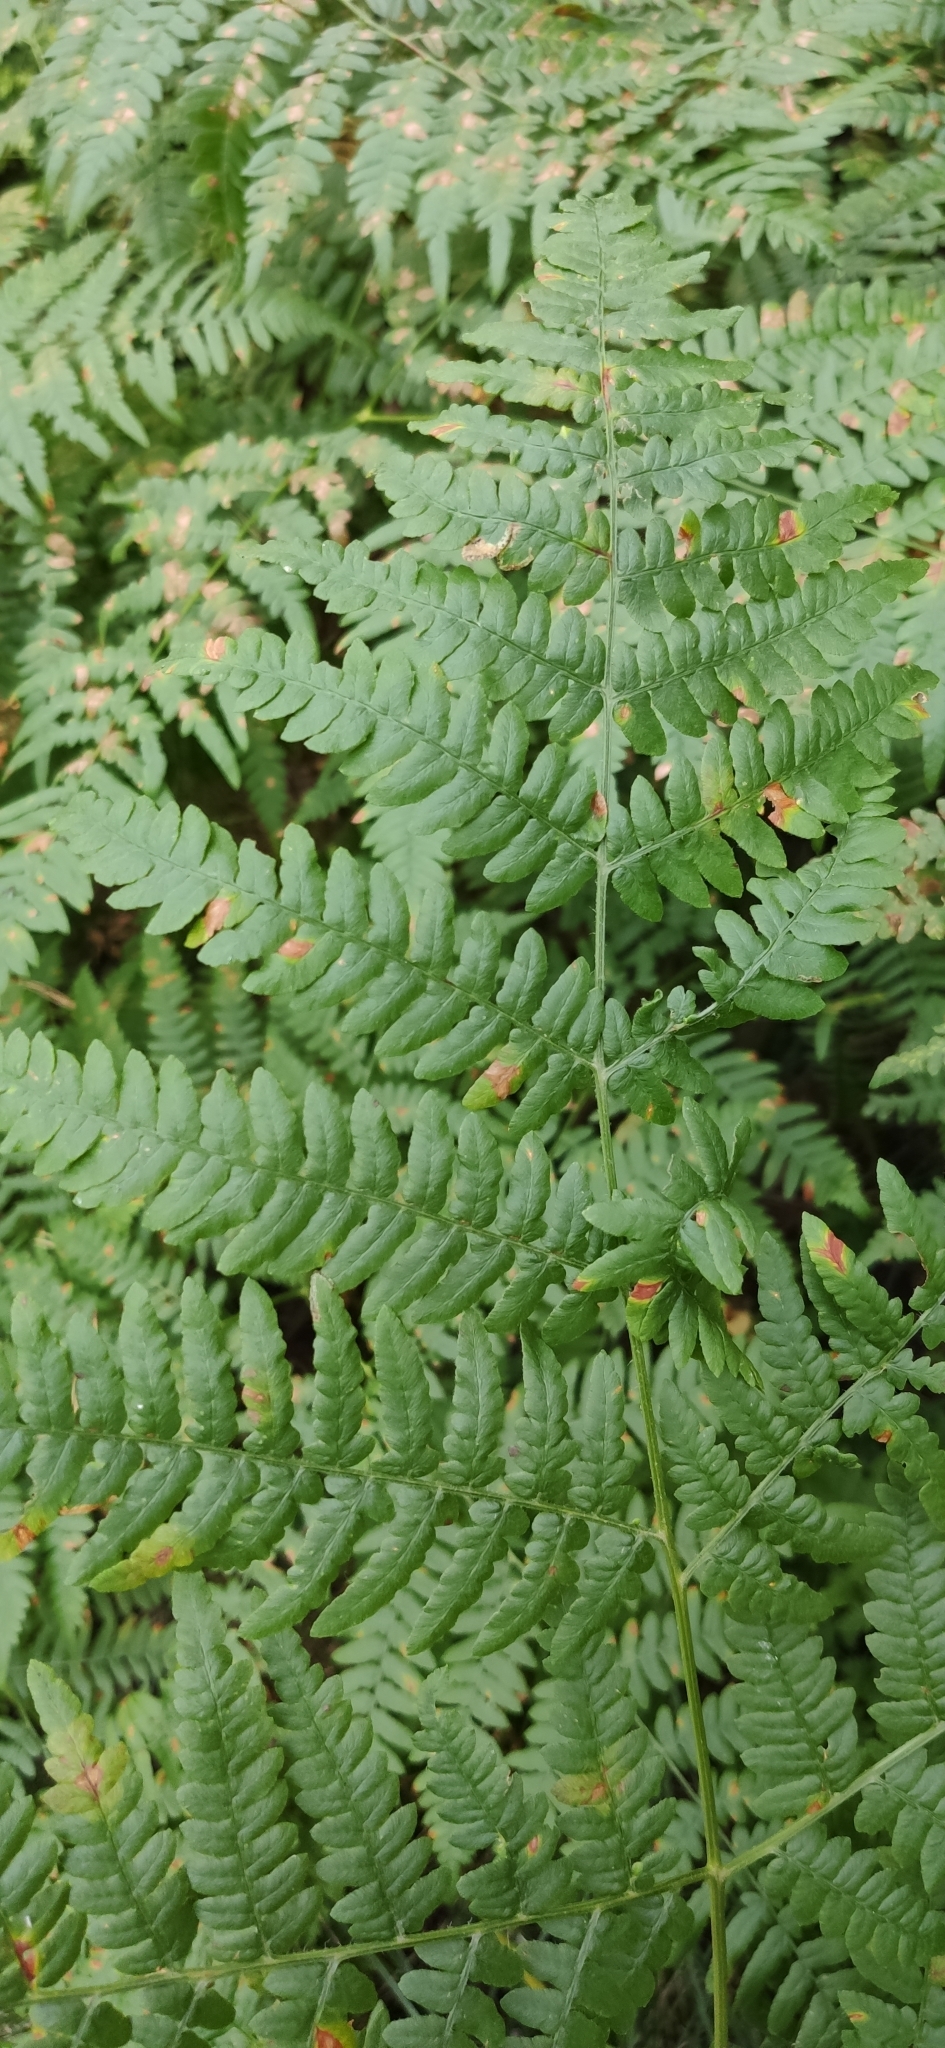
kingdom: Plantae
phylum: Tracheophyta
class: Polypodiopsida
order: Polypodiales
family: Dennstaedtiaceae
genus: Pteridium
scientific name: Pteridium aquilinum
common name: Bracken
